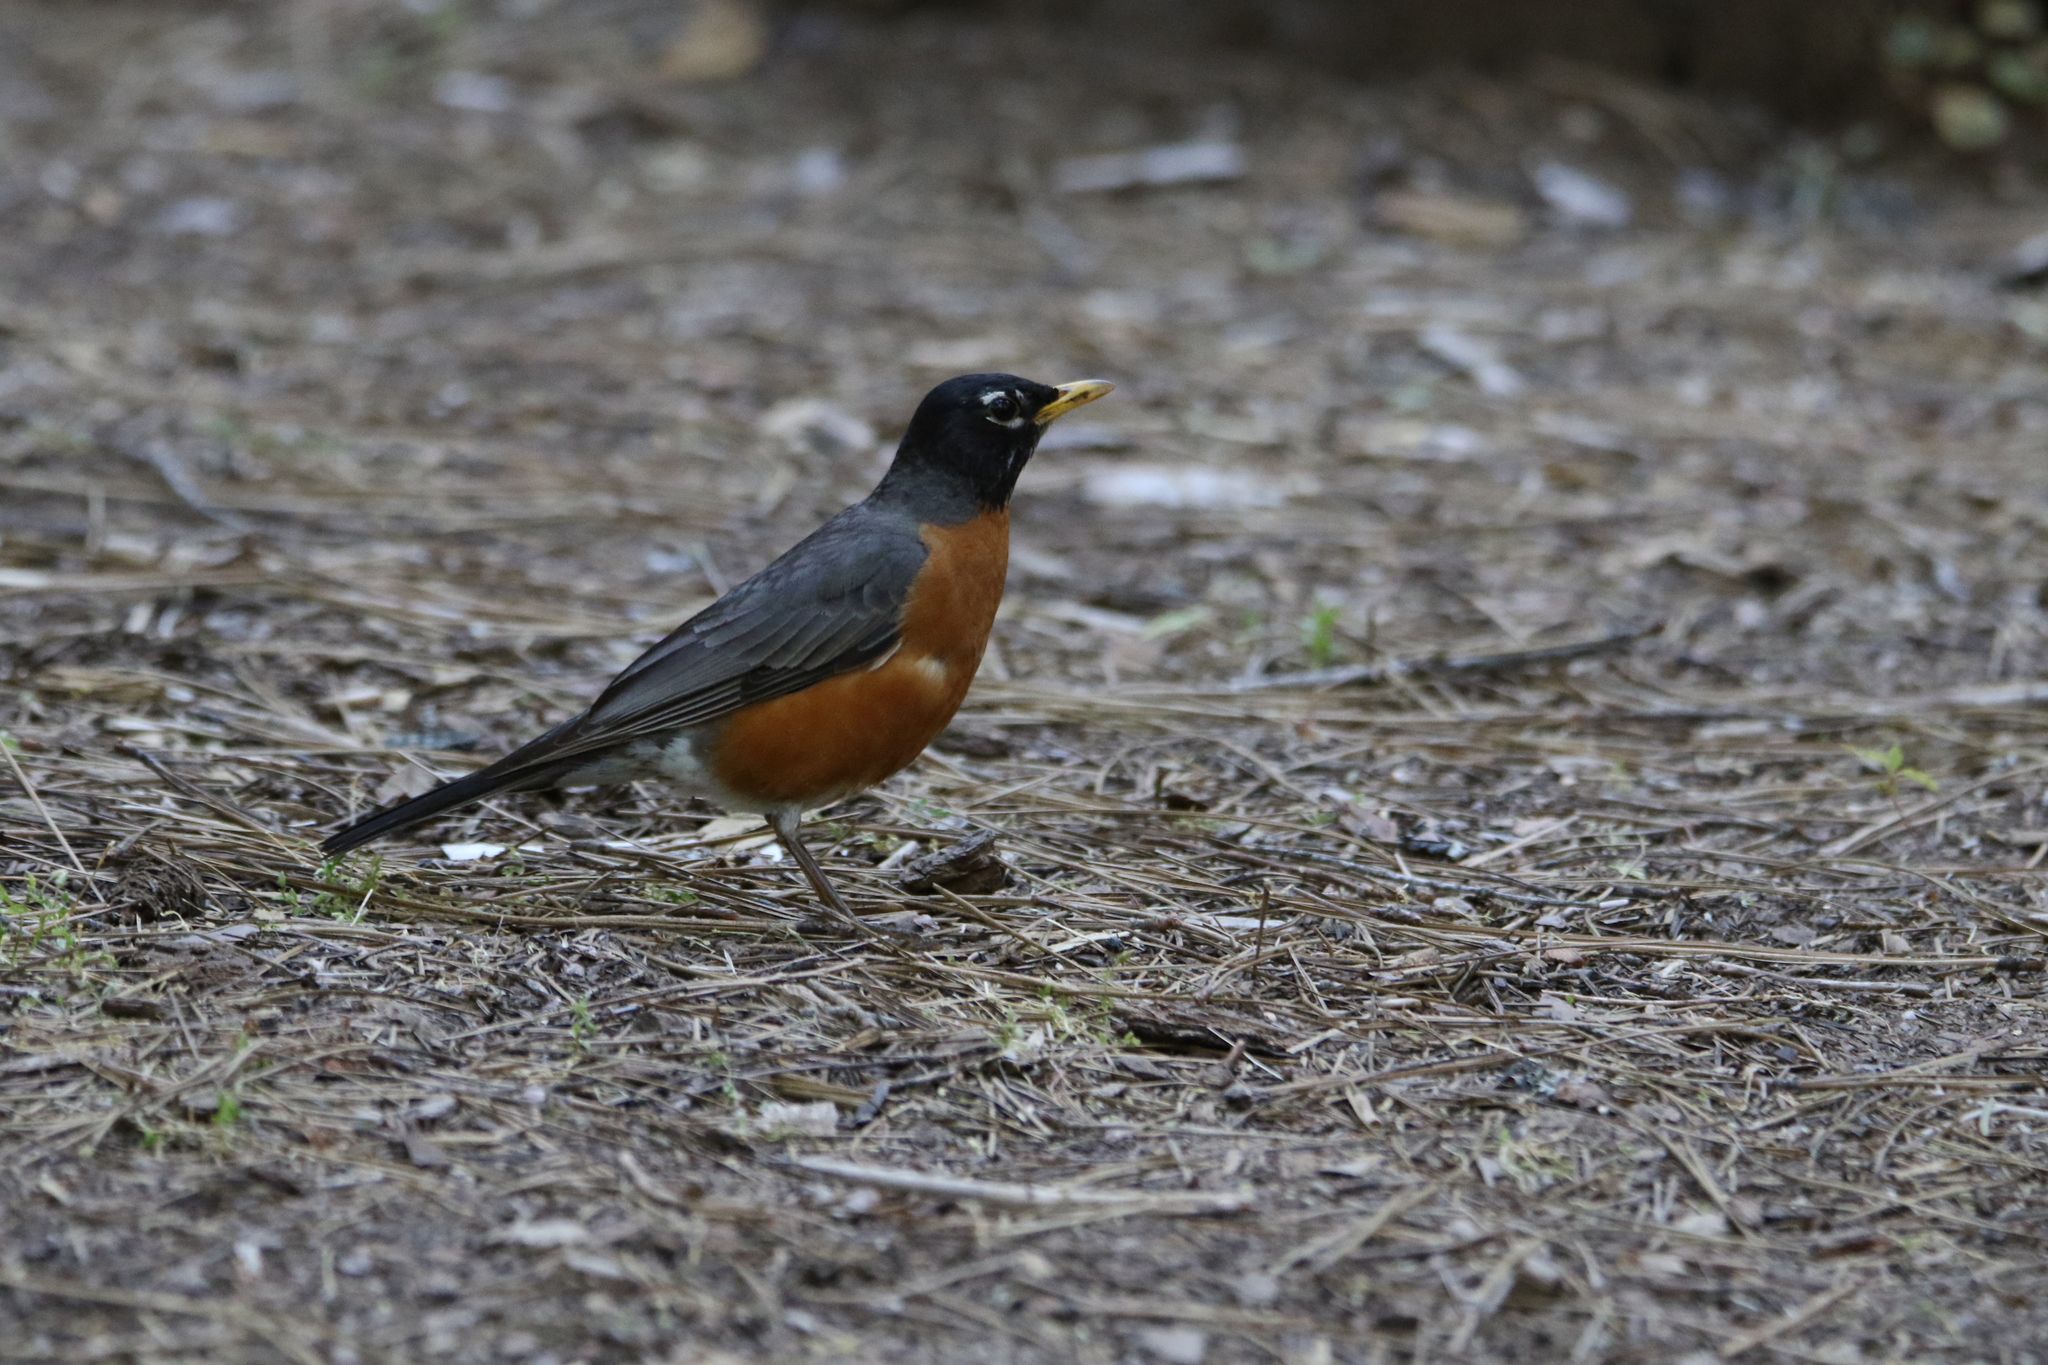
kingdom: Animalia
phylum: Chordata
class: Aves
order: Passeriformes
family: Turdidae
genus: Turdus
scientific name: Turdus migratorius
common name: American robin
